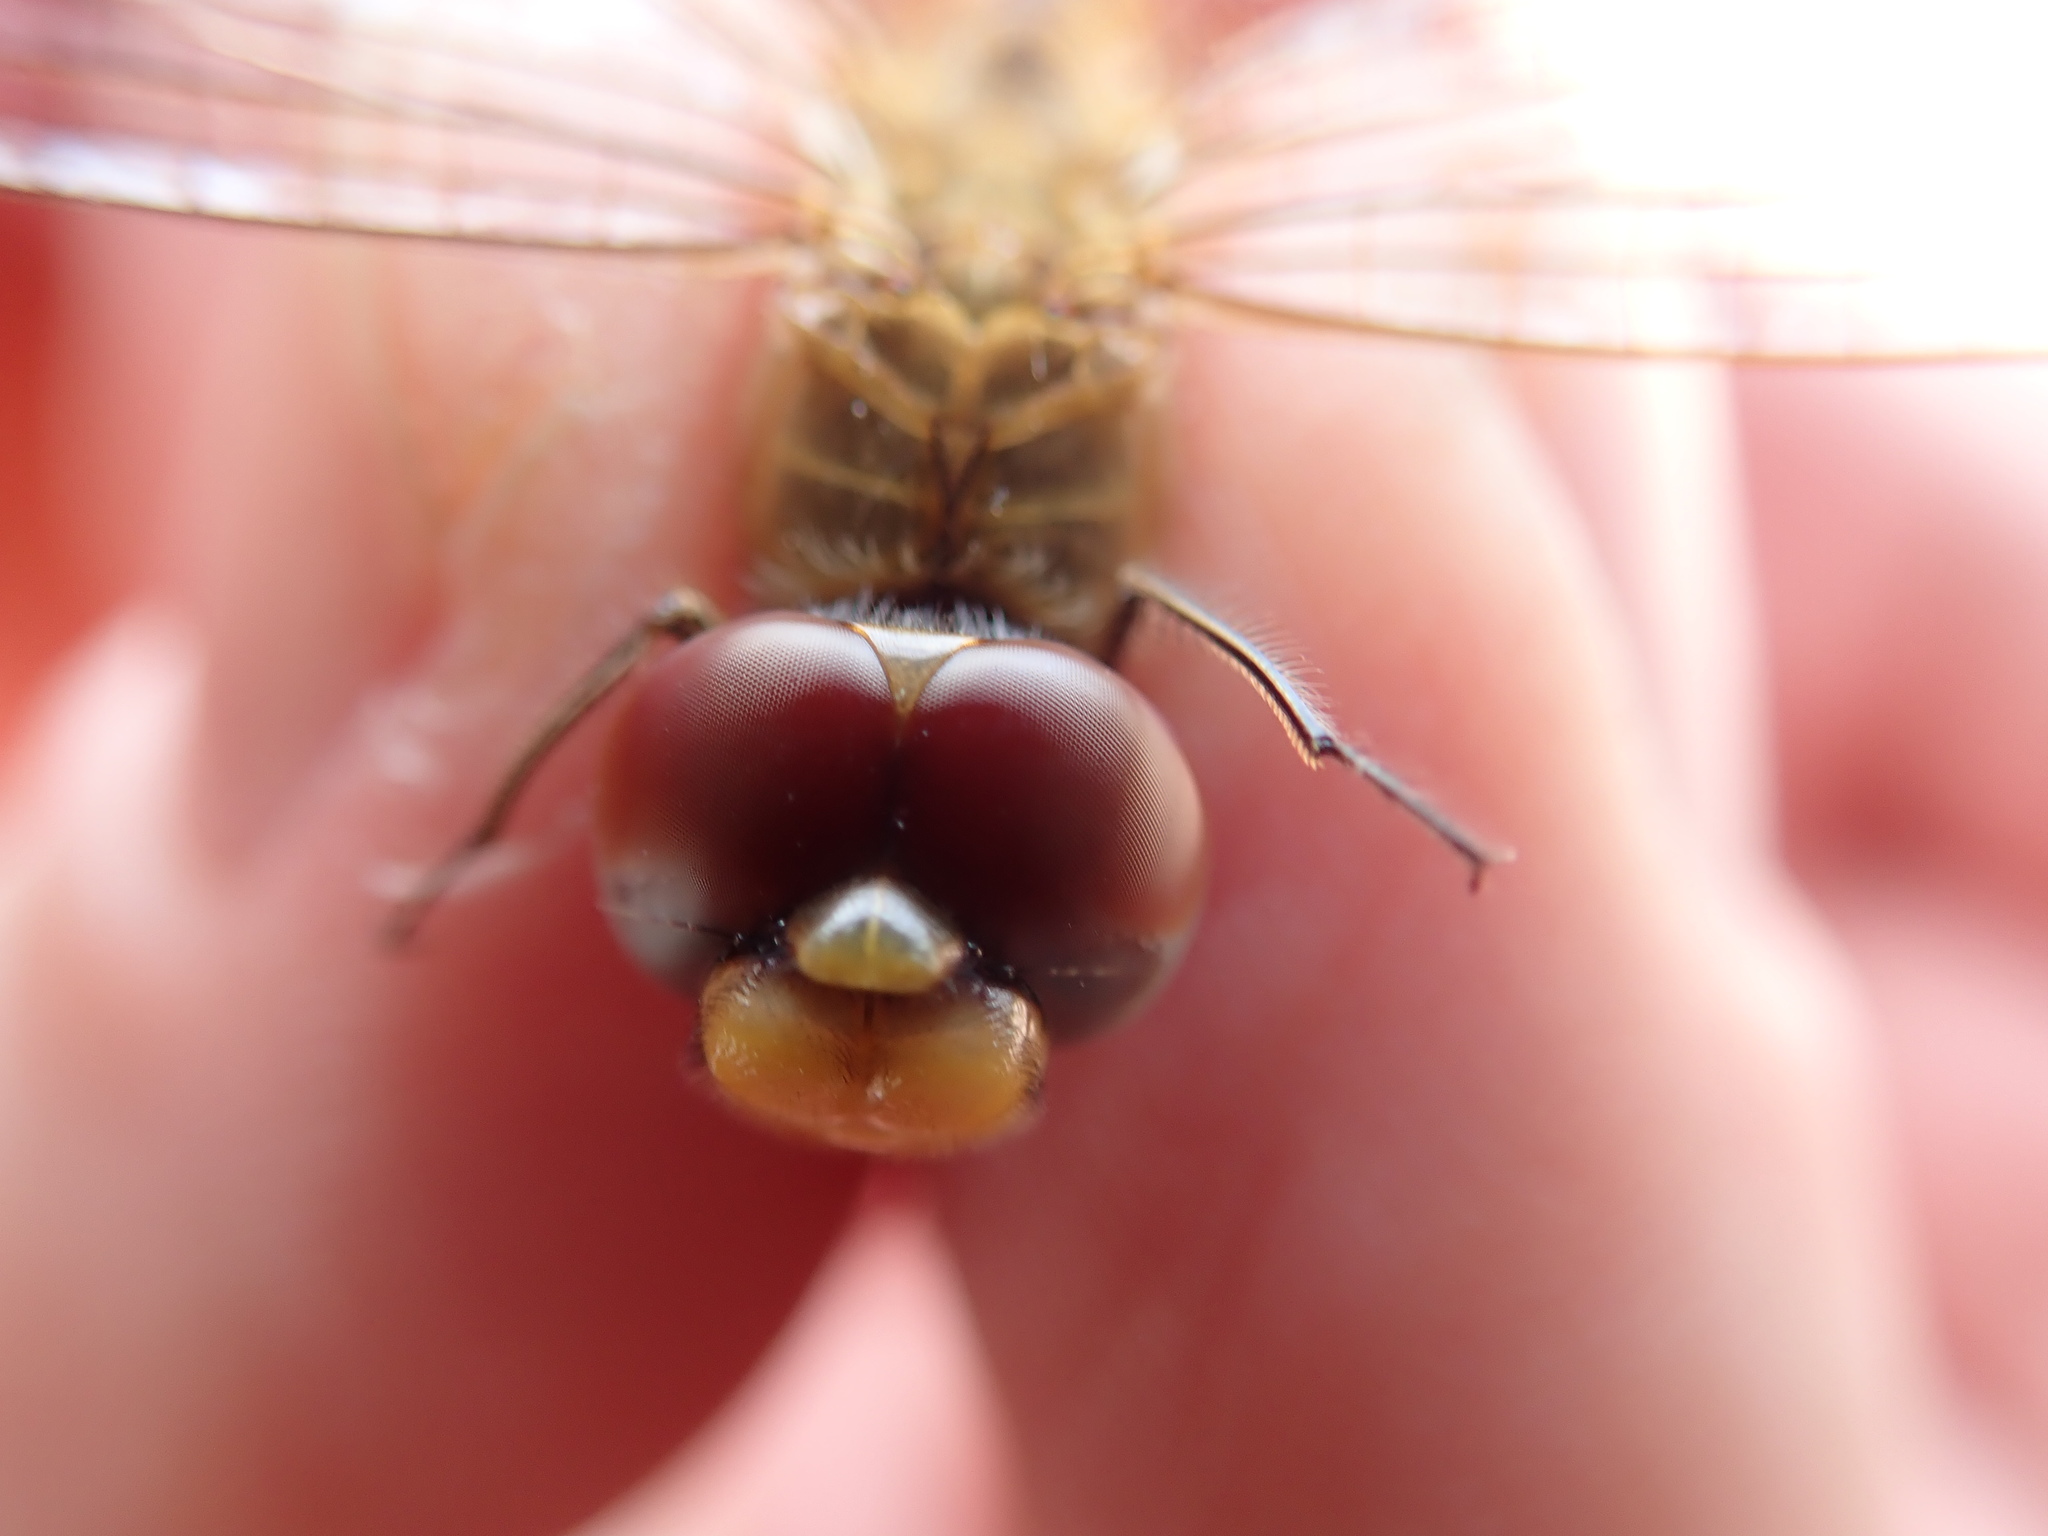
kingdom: Animalia
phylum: Arthropoda
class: Insecta
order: Odonata
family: Libellulidae
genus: Pantala
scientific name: Pantala flavescens
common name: Wandering glider
